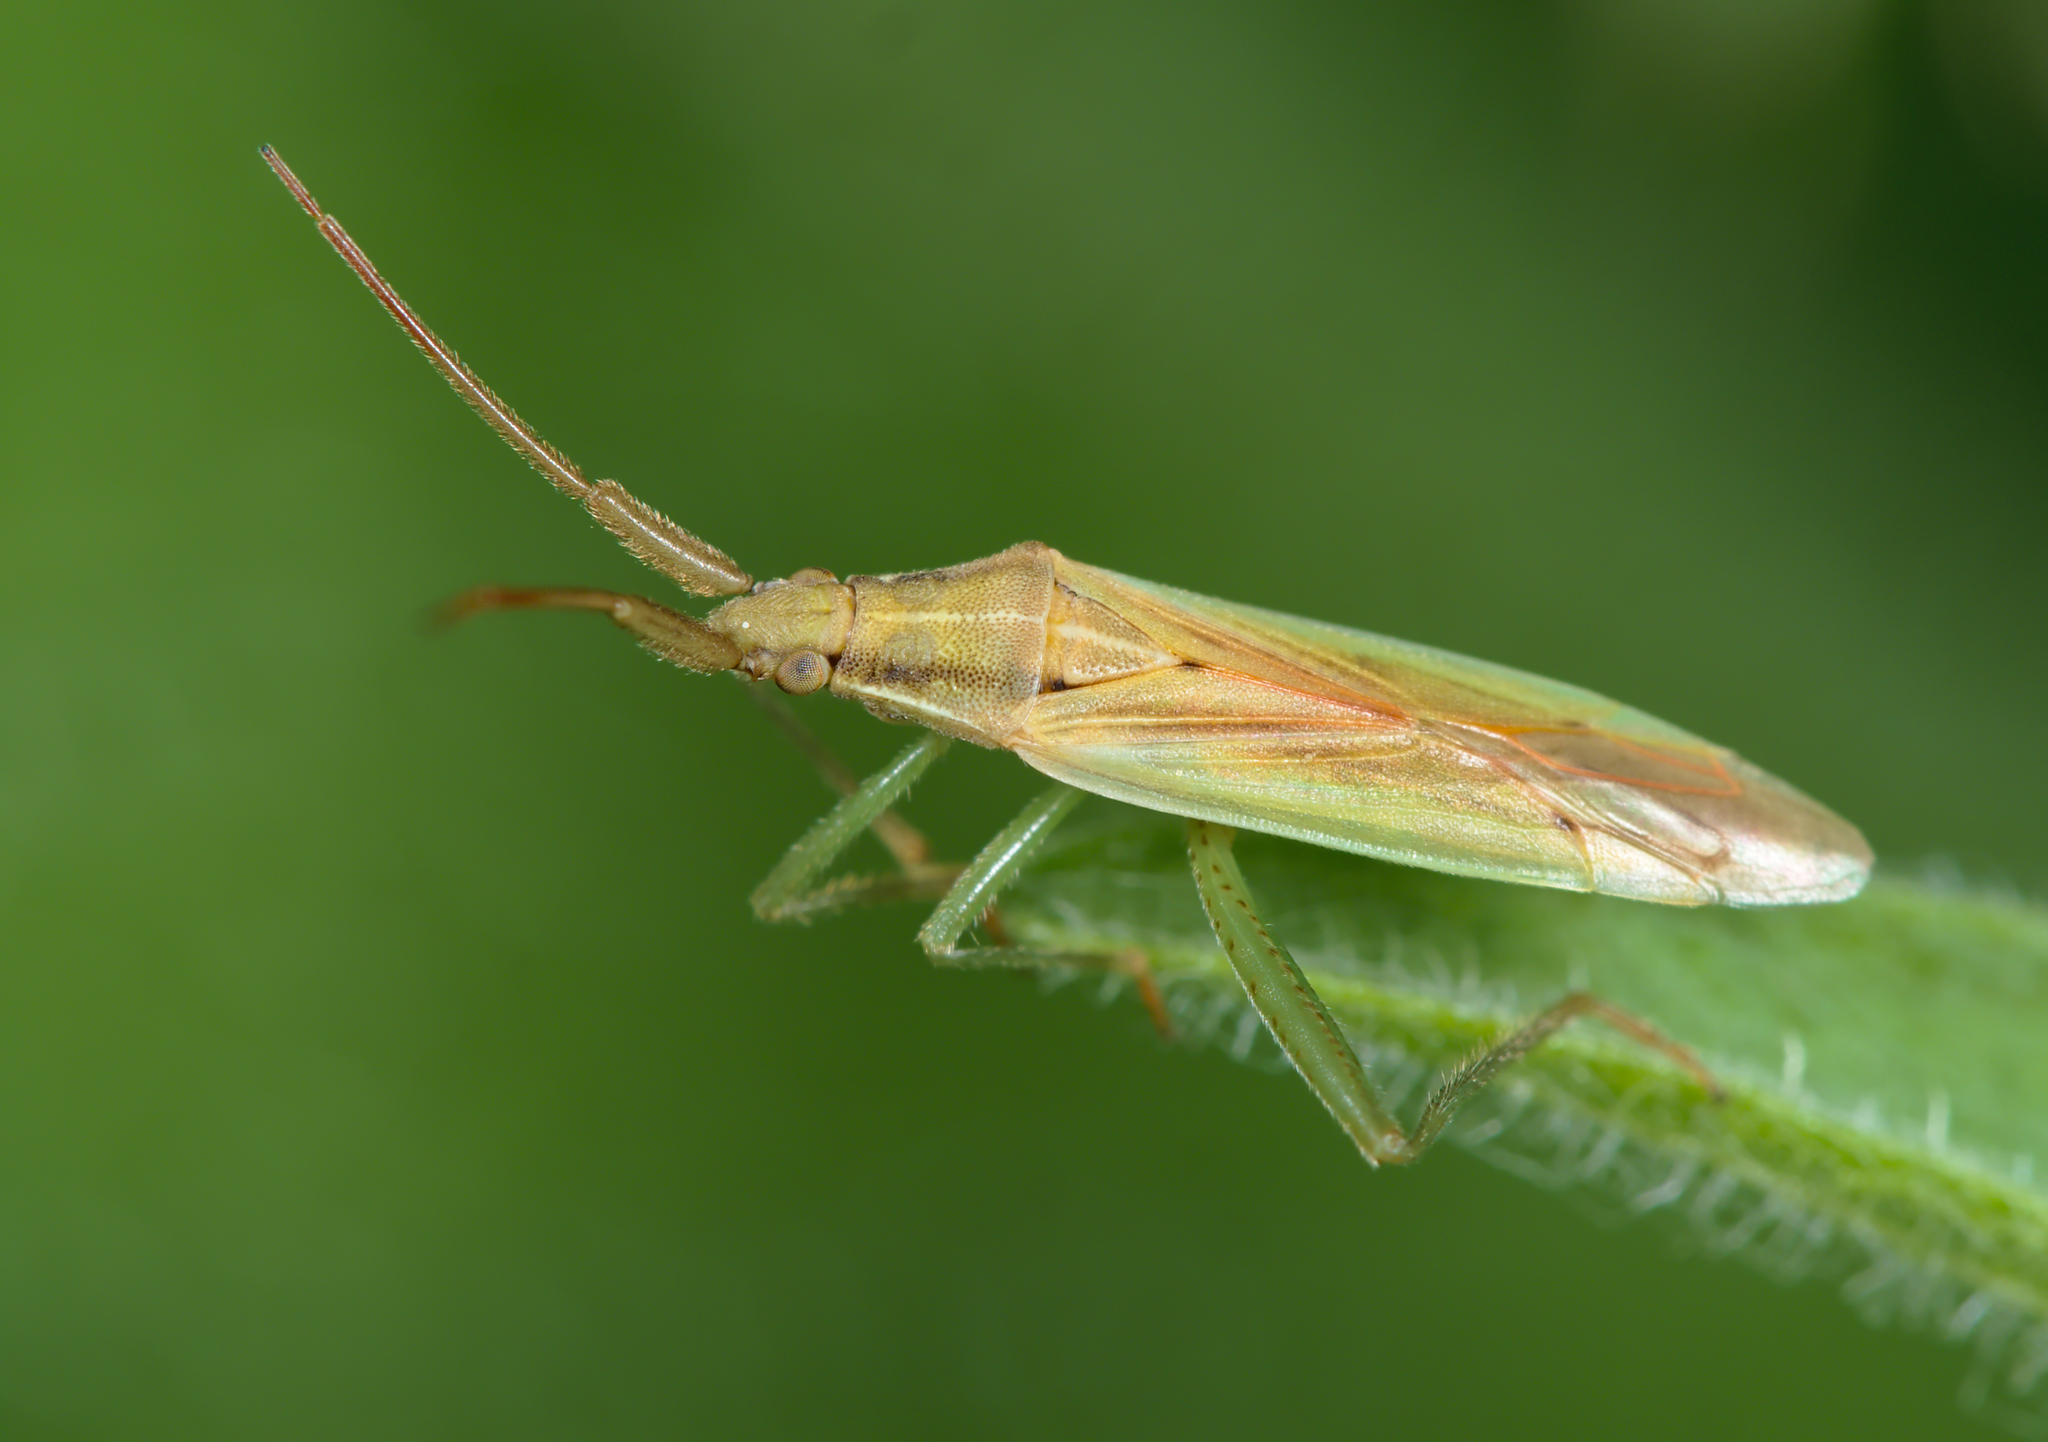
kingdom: Animalia
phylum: Arthropoda
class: Insecta
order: Hemiptera
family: Miridae
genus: Stenodema
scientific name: Stenodema laevigata
